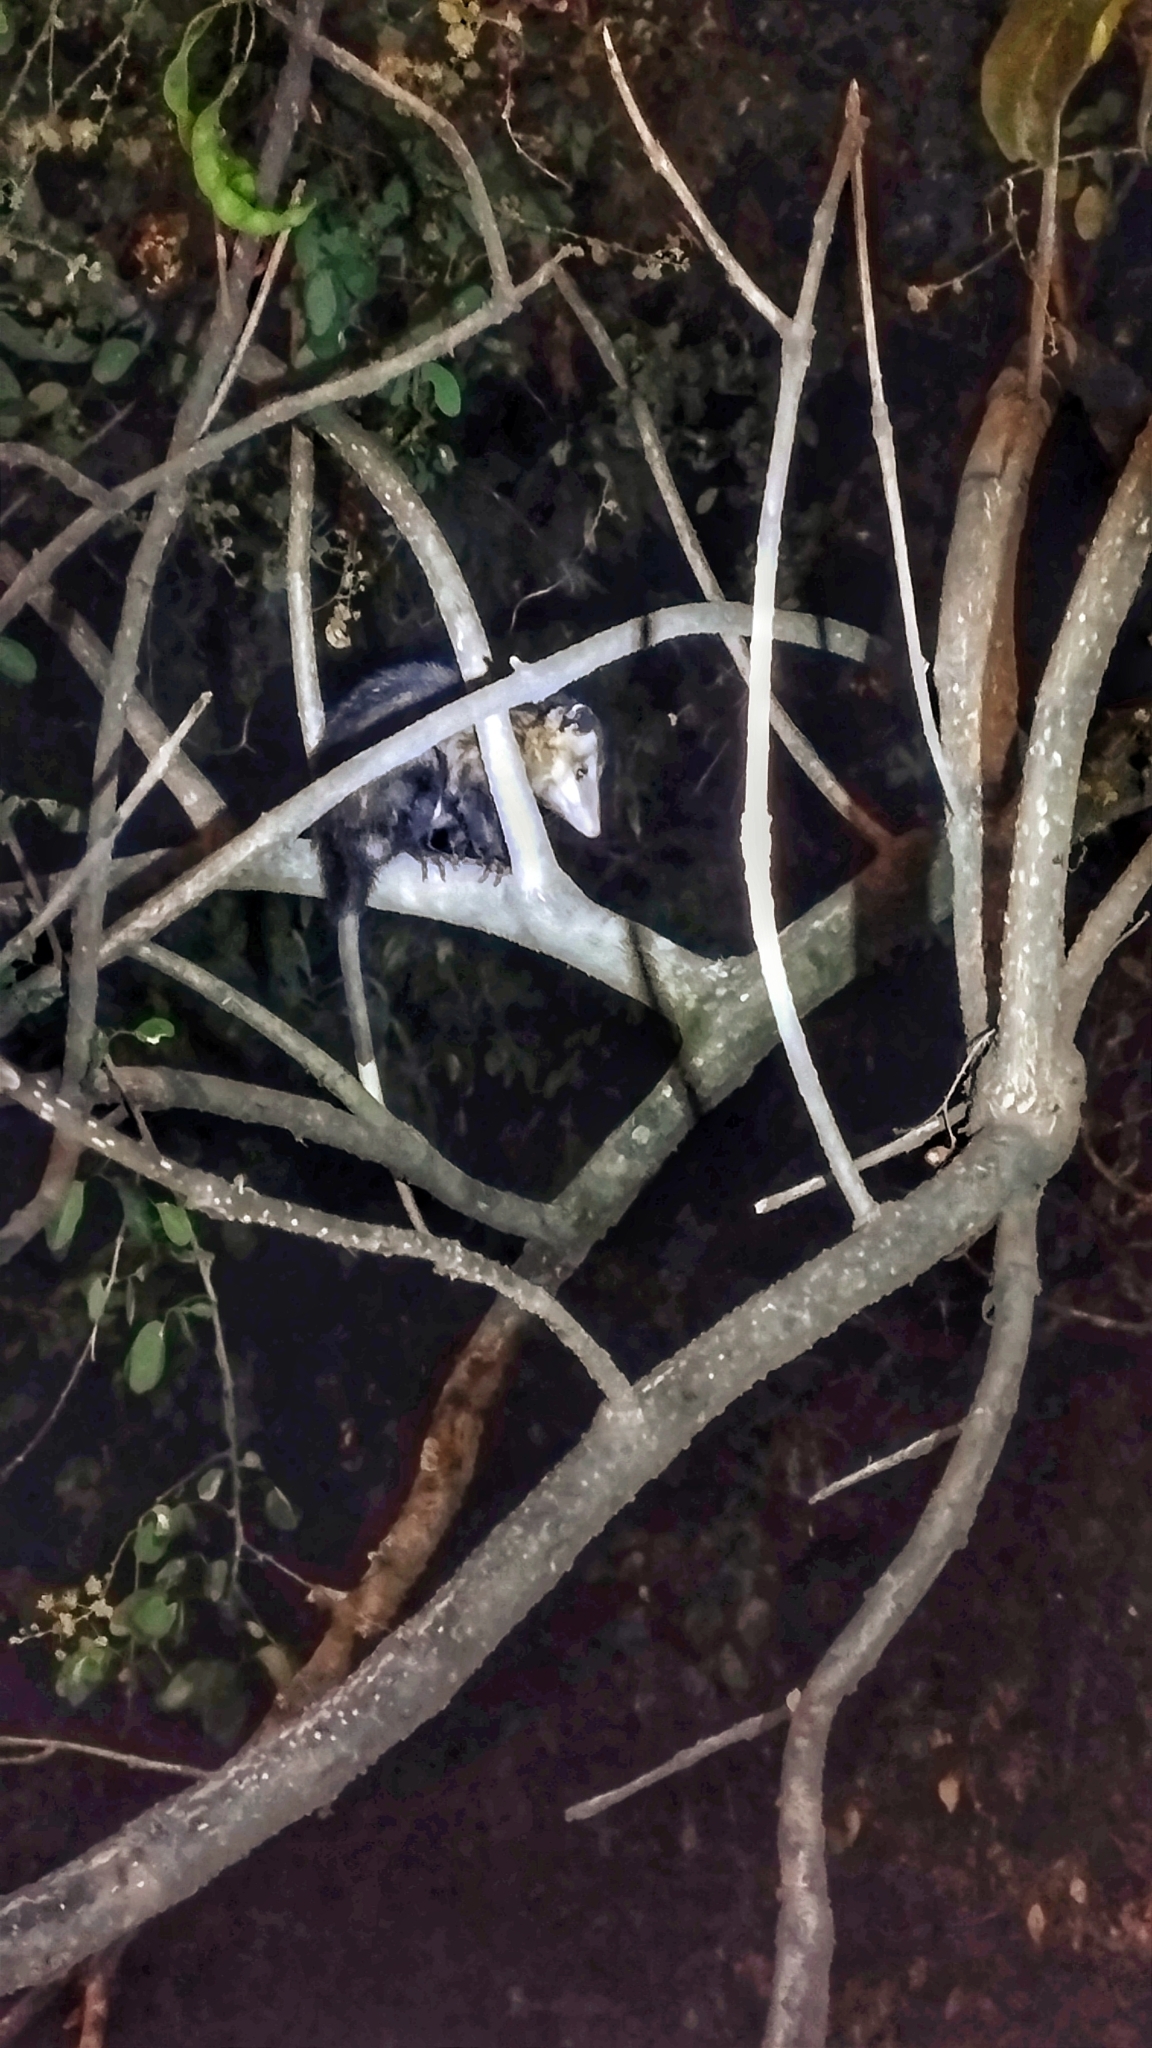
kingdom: Animalia
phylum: Chordata
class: Mammalia
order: Didelphimorphia
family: Didelphidae
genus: Didelphis
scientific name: Didelphis marsupialis
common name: Common opossum
